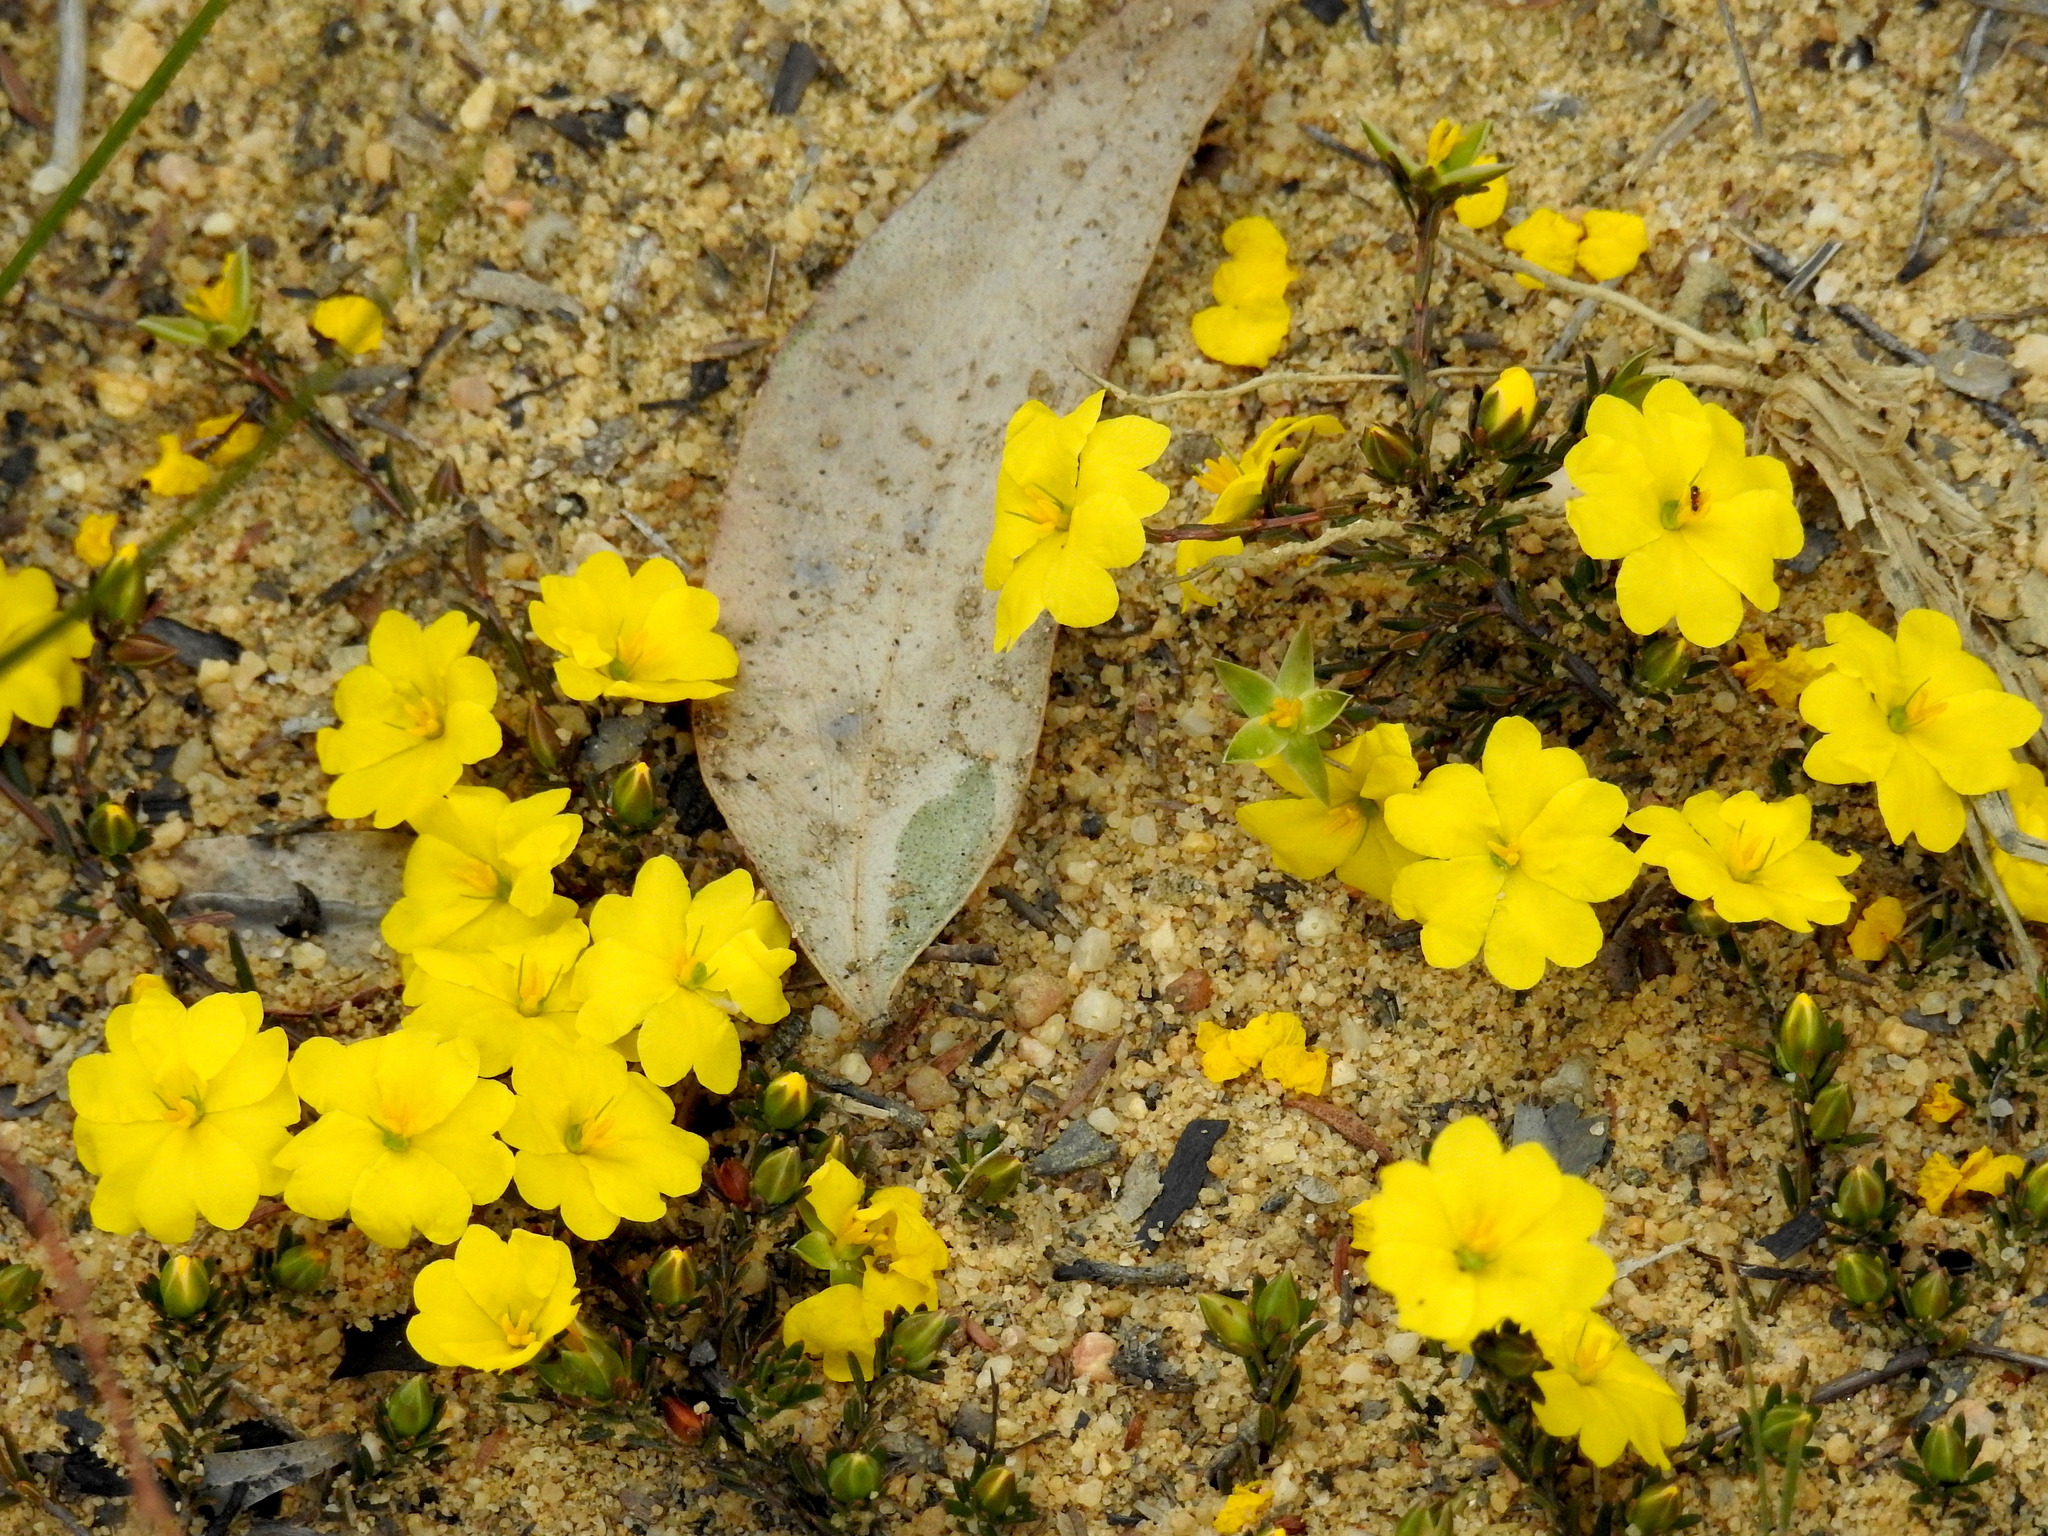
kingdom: Plantae
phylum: Tracheophyta
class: Magnoliopsida
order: Dilleniales
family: Dilleniaceae
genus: Hibbertia
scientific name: Hibbertia pustulata
